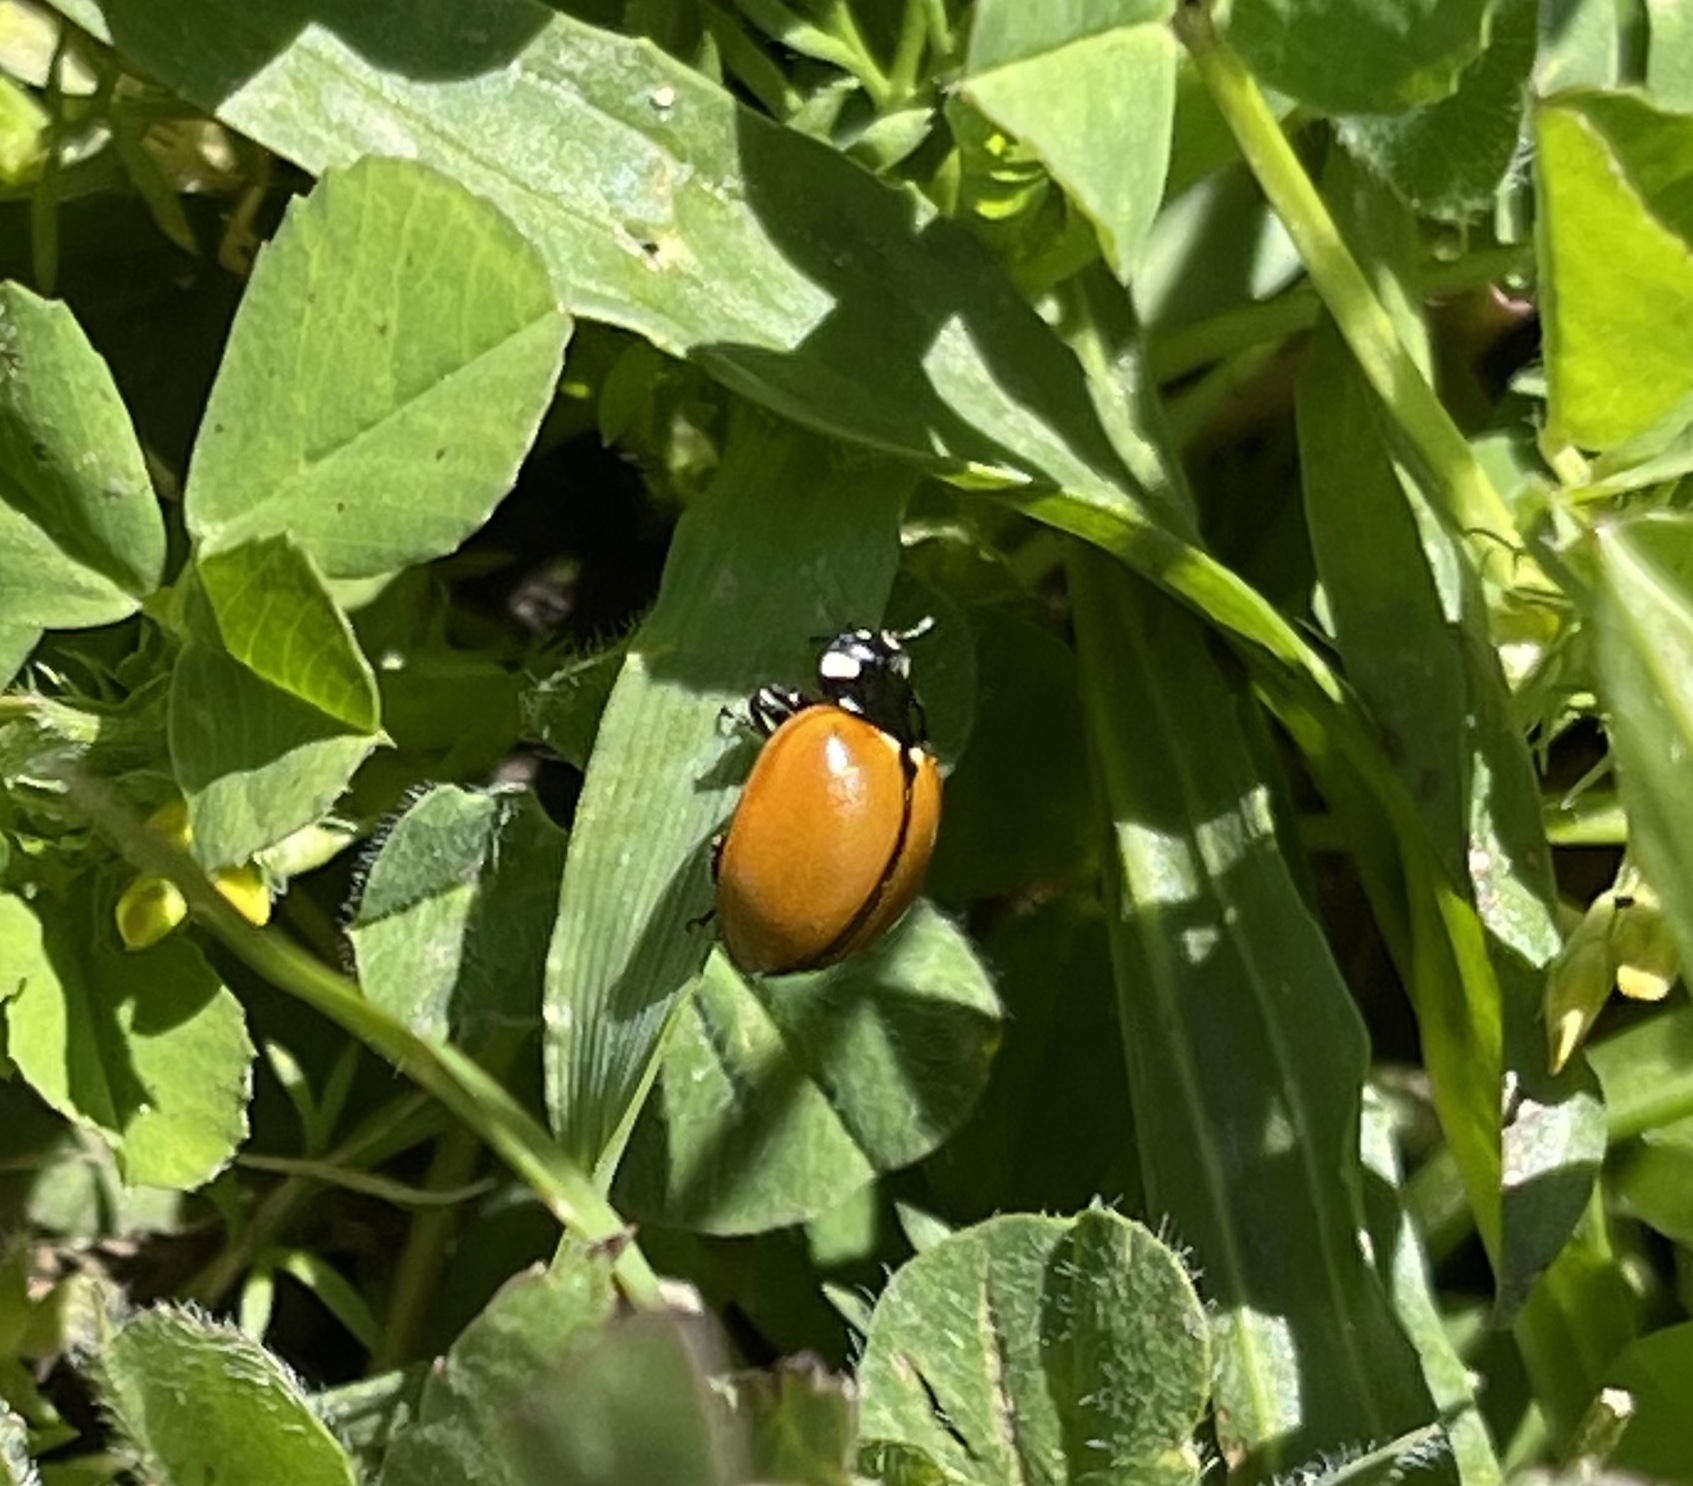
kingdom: Animalia
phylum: Arthropoda
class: Insecta
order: Coleoptera
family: Coccinellidae
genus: Coccinella
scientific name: Coccinella californica
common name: Lady beetle
